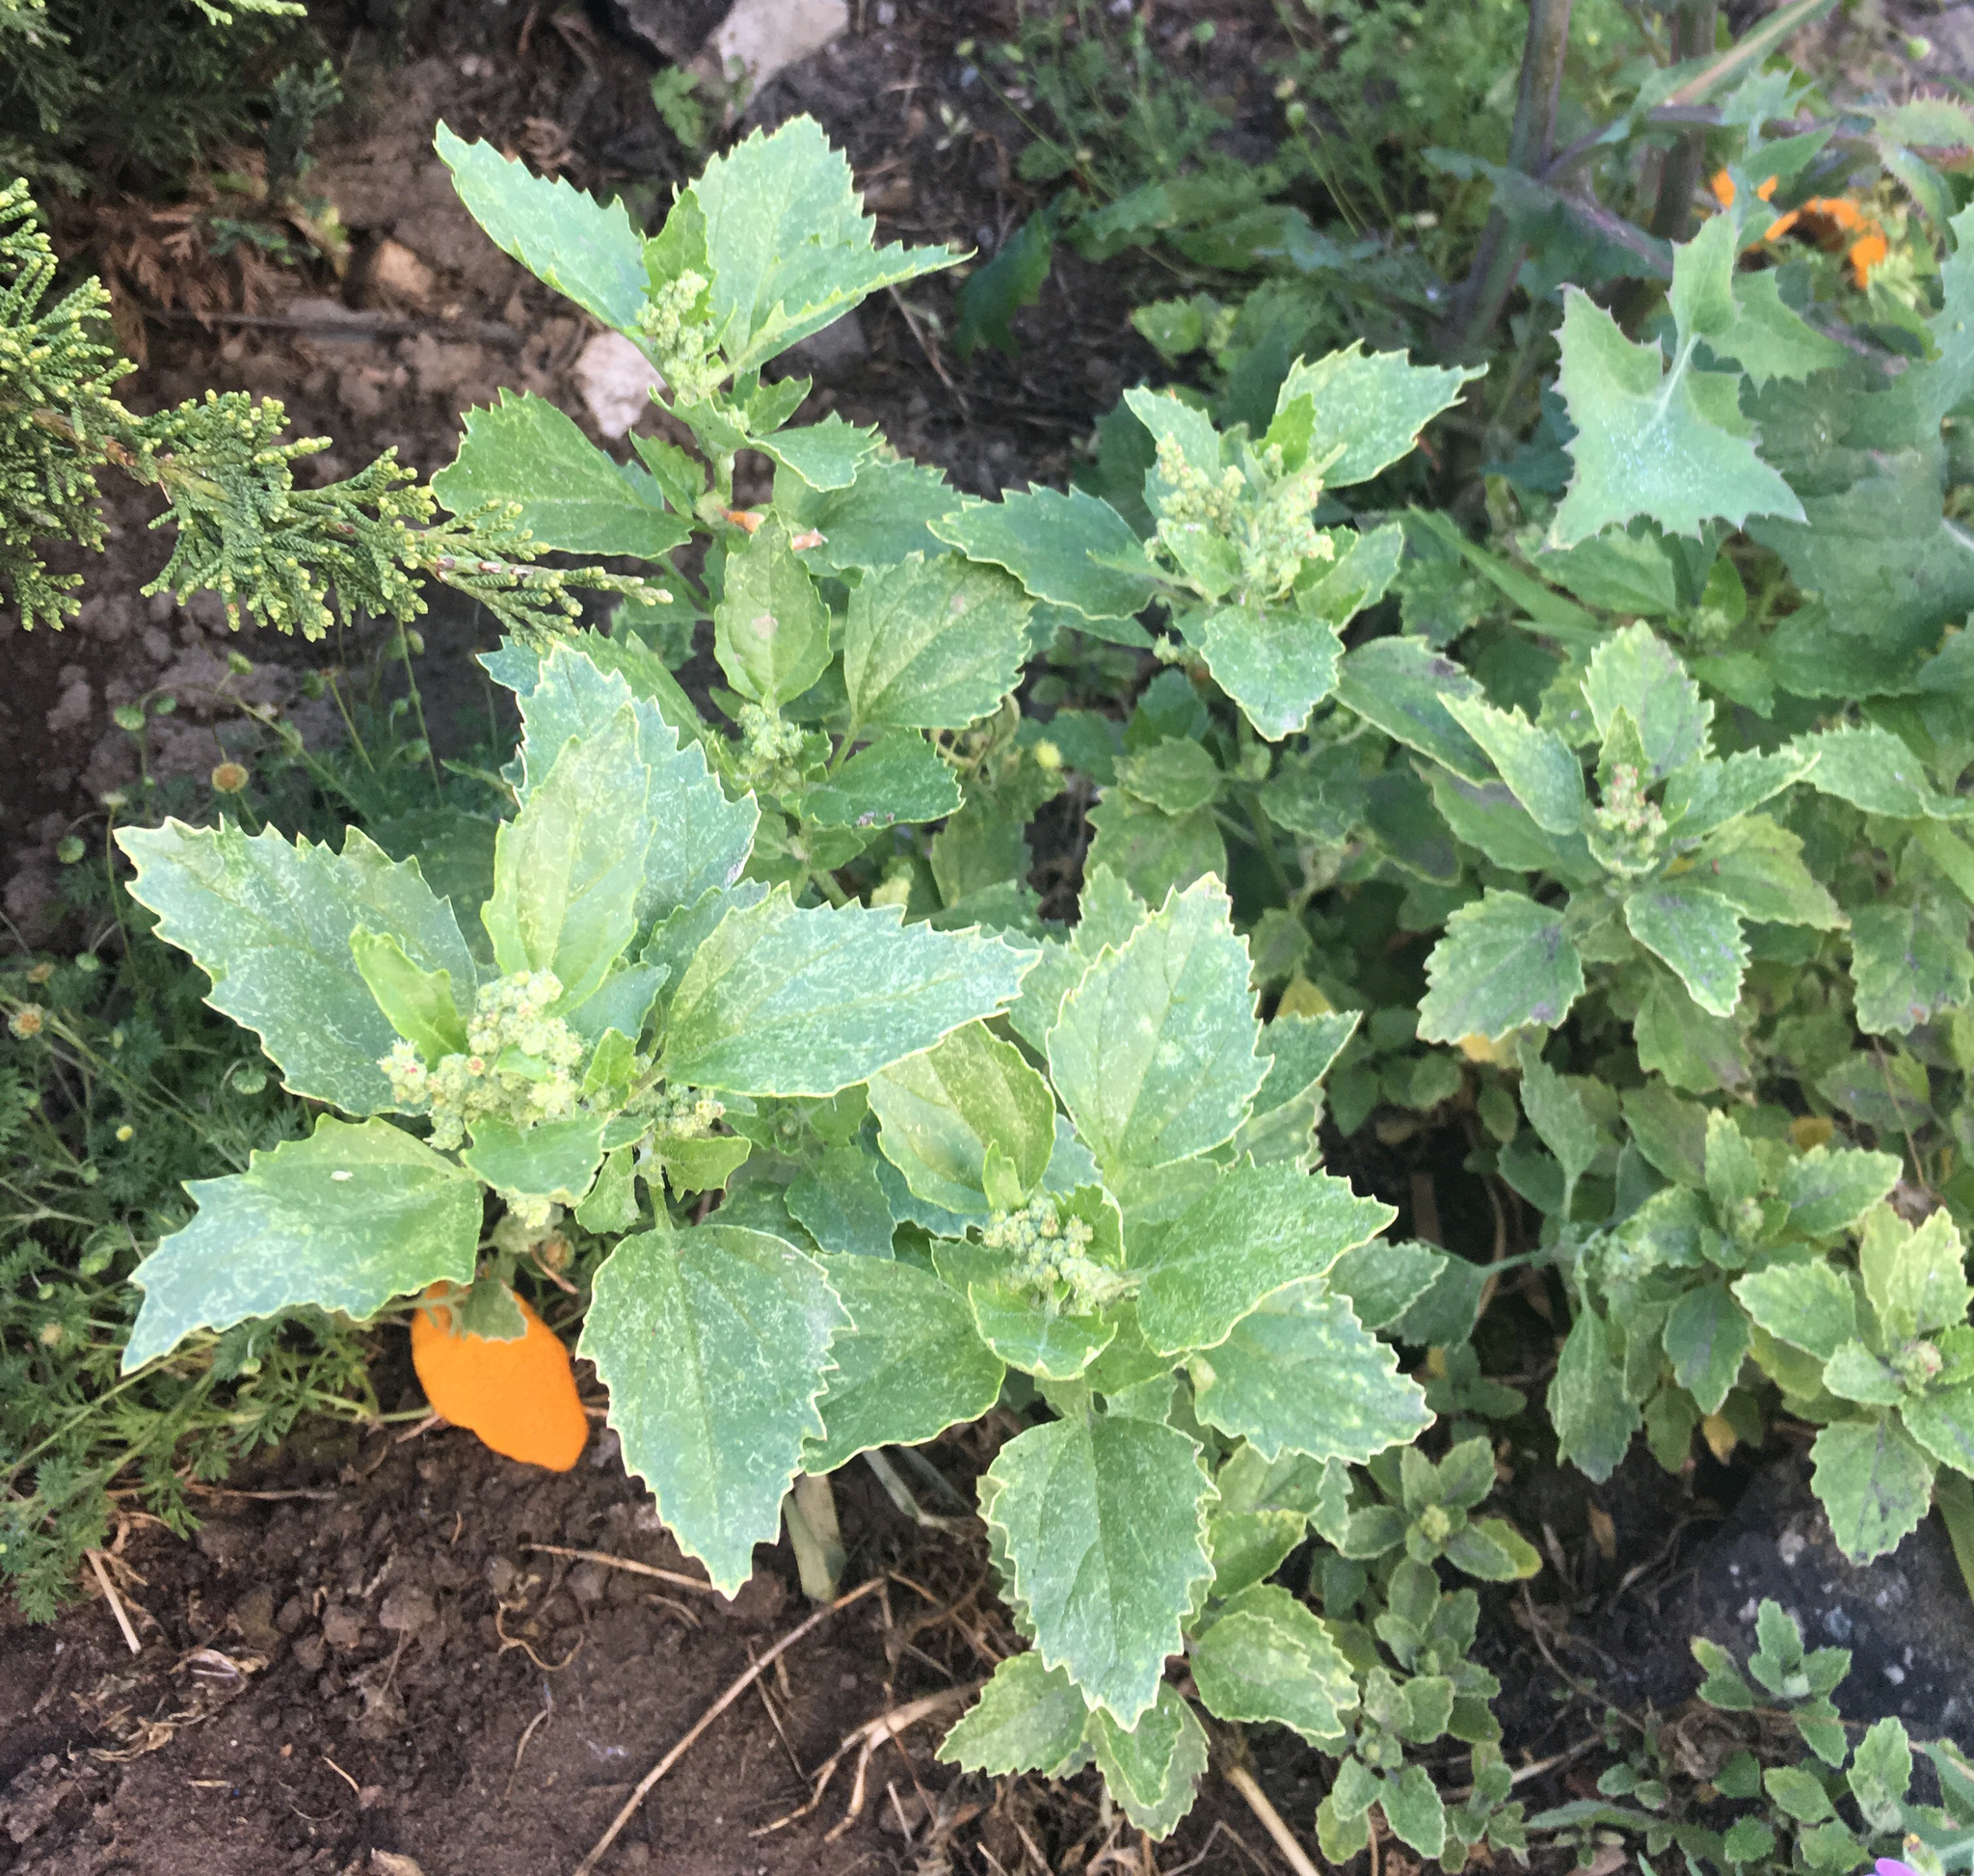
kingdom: Plantae
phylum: Tracheophyta
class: Magnoliopsida
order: Caryophyllales
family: Amaranthaceae
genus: Chenopodiastrum
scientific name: Chenopodiastrum murale
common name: Sowbane
